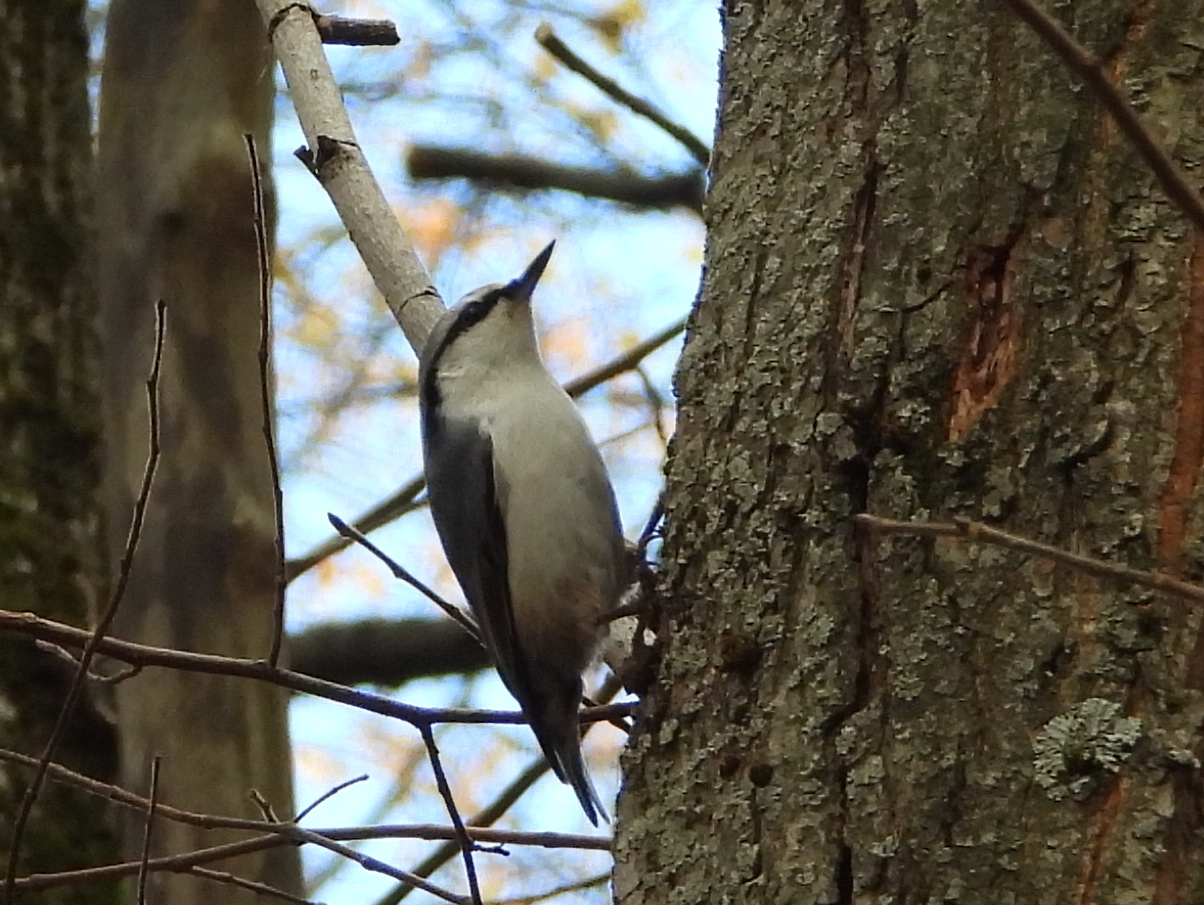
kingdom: Animalia
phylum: Chordata
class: Aves
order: Passeriformes
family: Sittidae
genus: Sitta
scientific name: Sitta europaea
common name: Eurasian nuthatch
